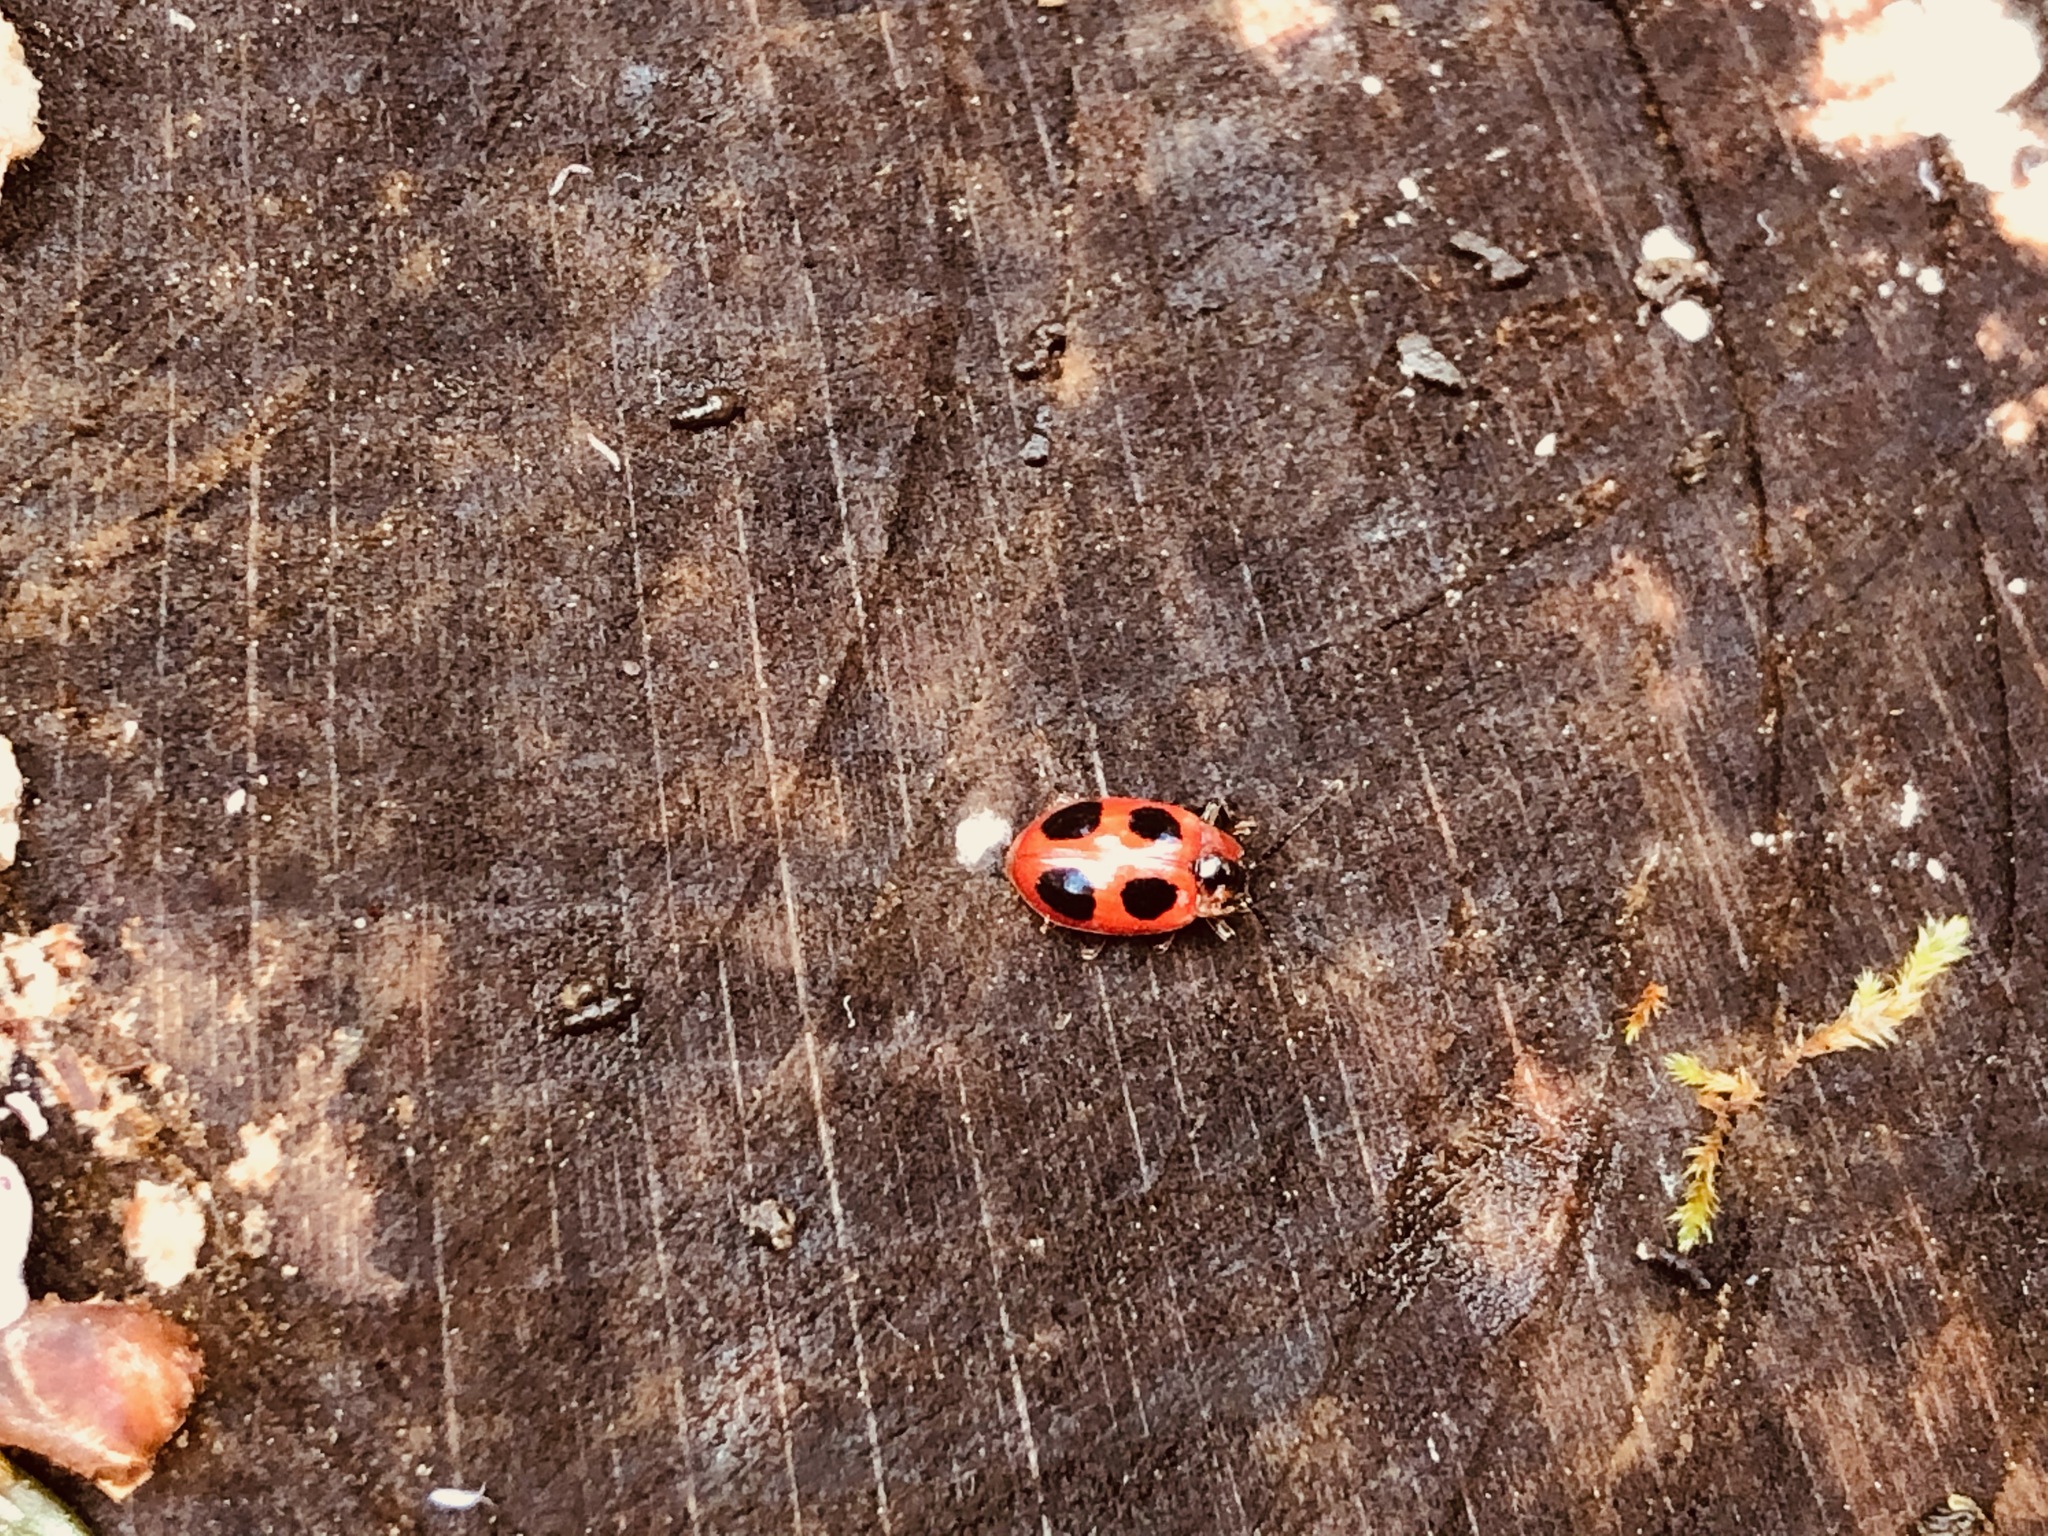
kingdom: Animalia
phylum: Arthropoda
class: Insecta
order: Coleoptera
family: Endomychidae
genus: Endomychus
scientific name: Endomychus coccineus
